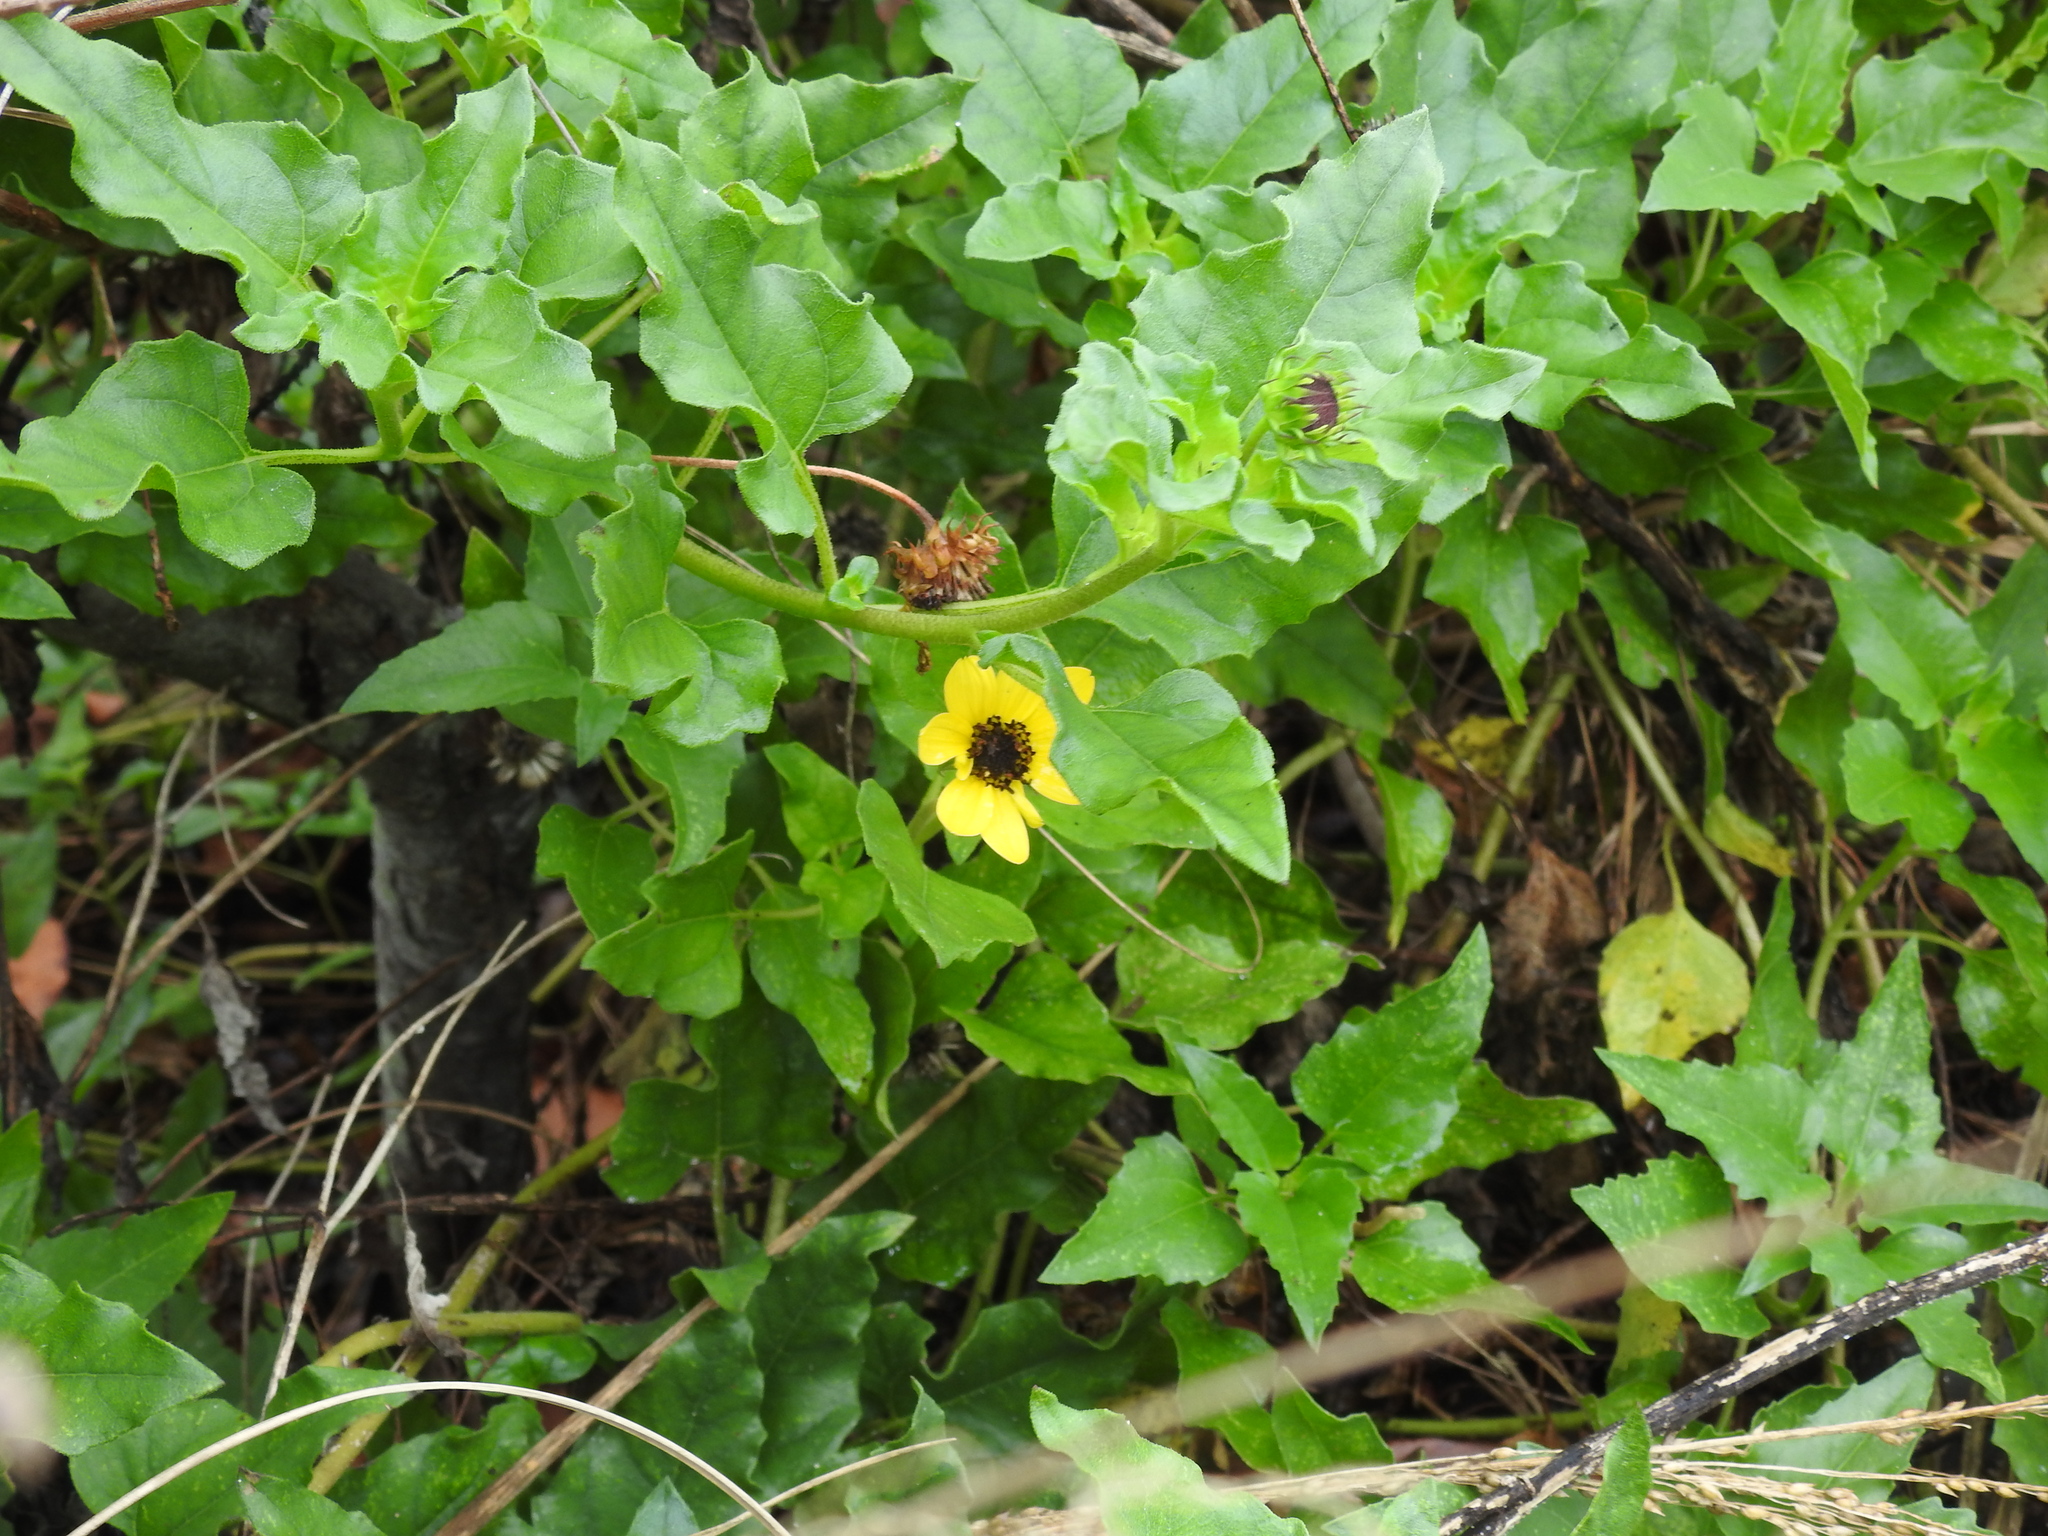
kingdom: Plantae
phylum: Tracheophyta
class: Magnoliopsida
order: Asterales
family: Asteraceae
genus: Helianthus
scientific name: Helianthus debilis
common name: Weak sunflower
